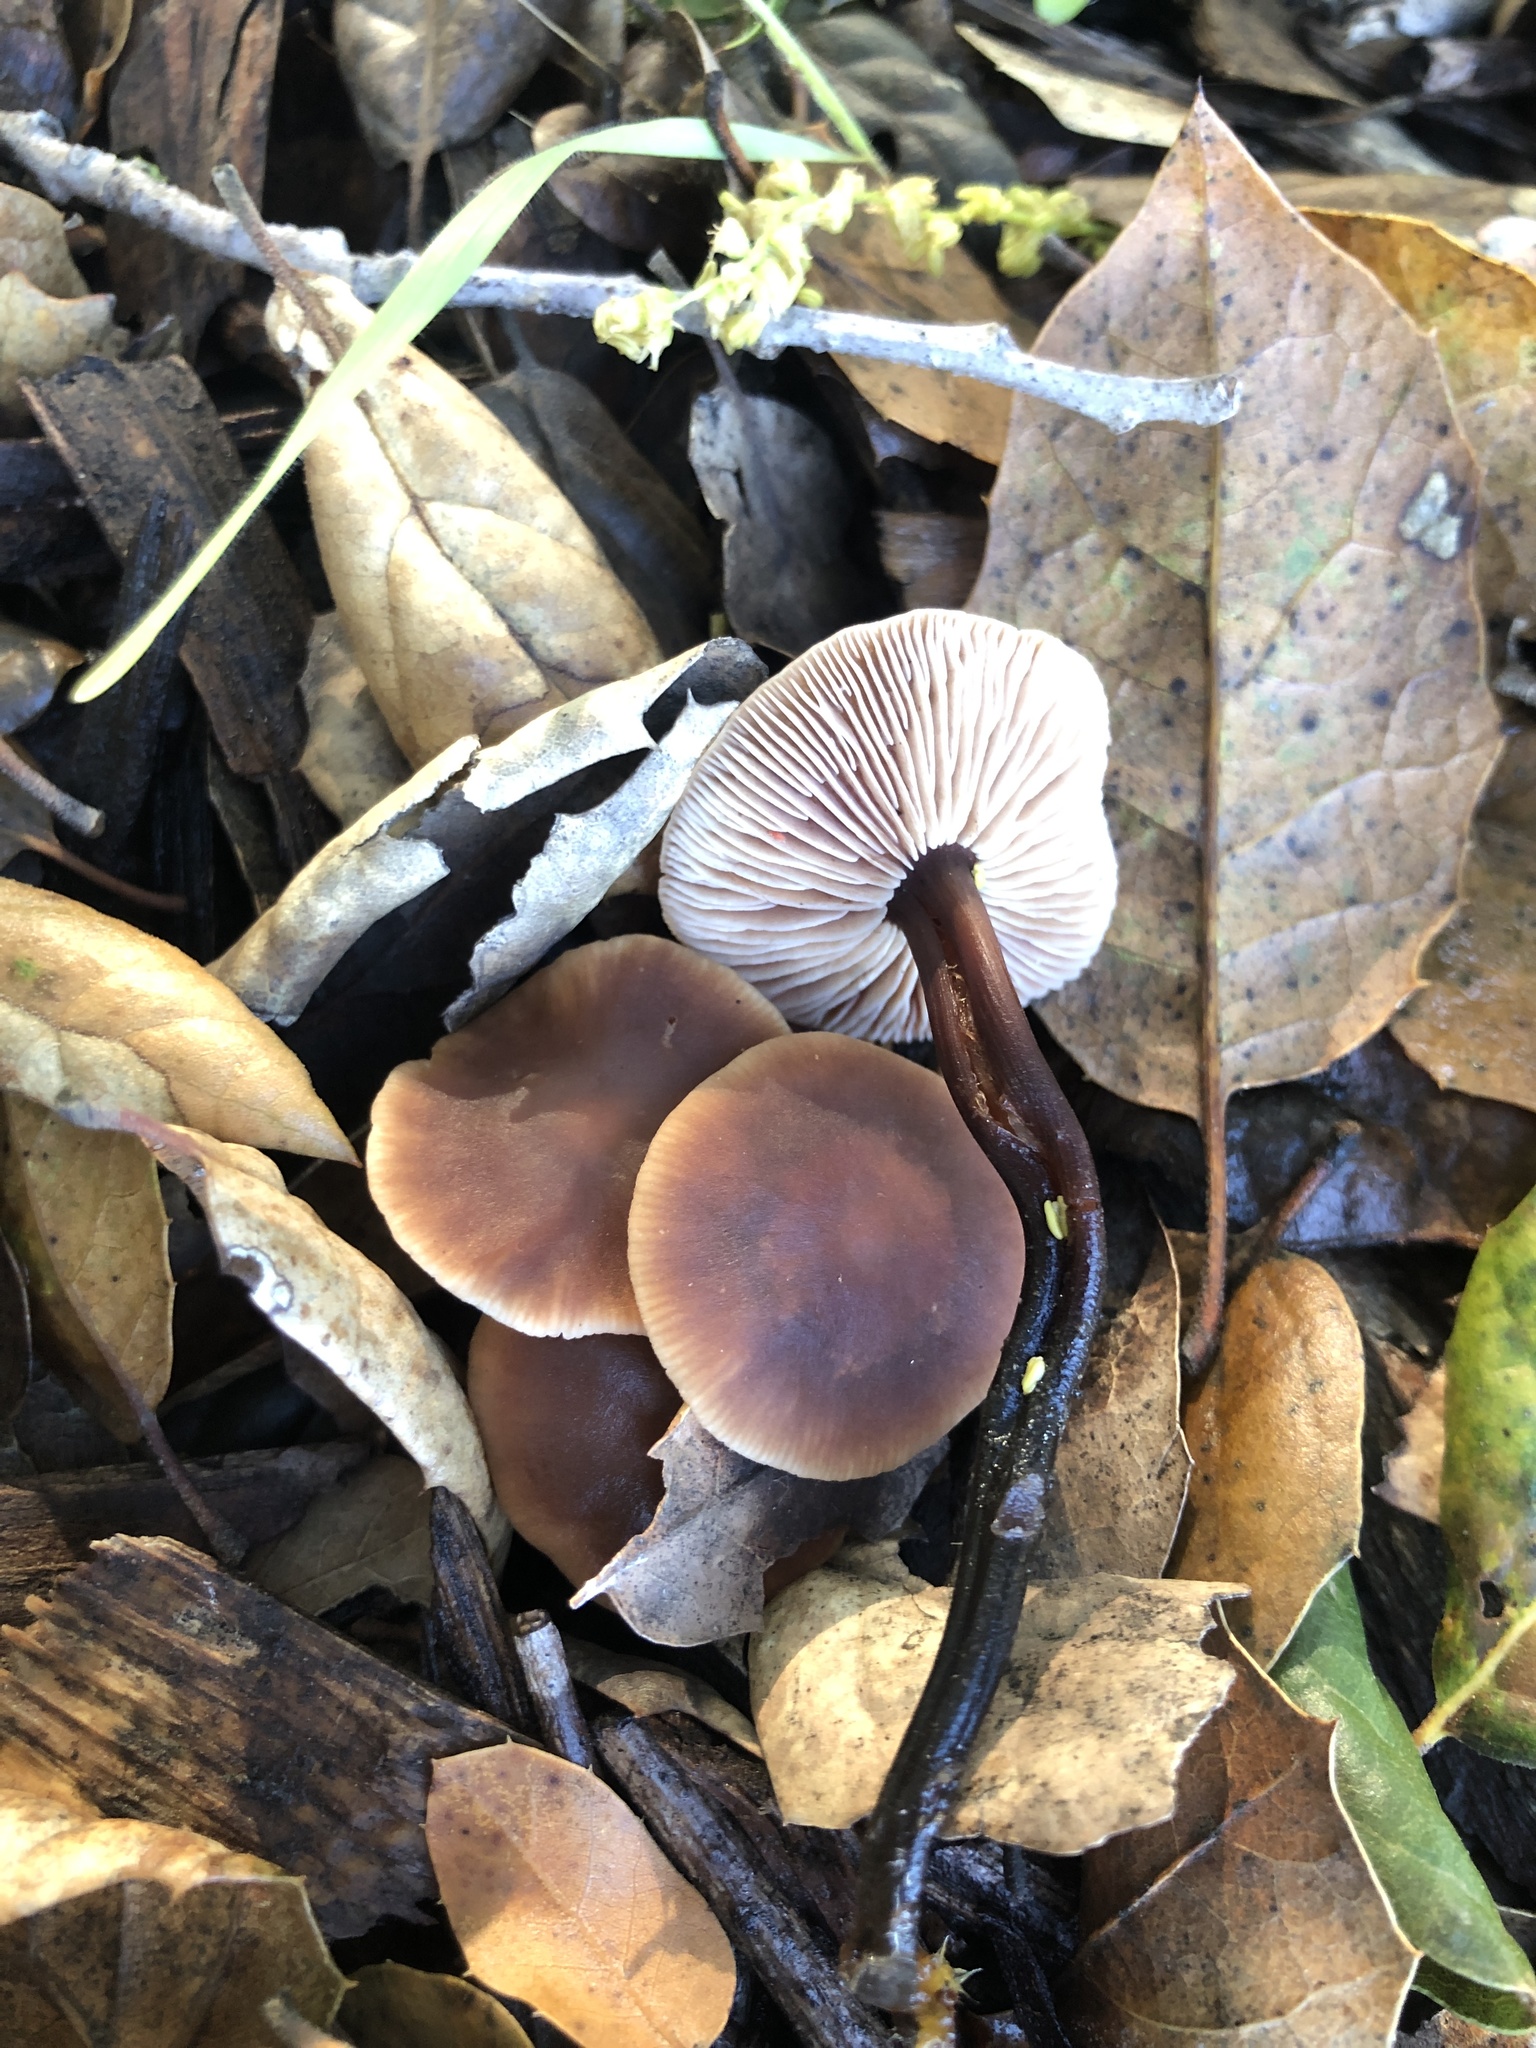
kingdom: Fungi
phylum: Basidiomycota
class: Agaricomycetes
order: Agaricales
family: Omphalotaceae
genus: Gymnopus
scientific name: Gymnopus brassicolens
